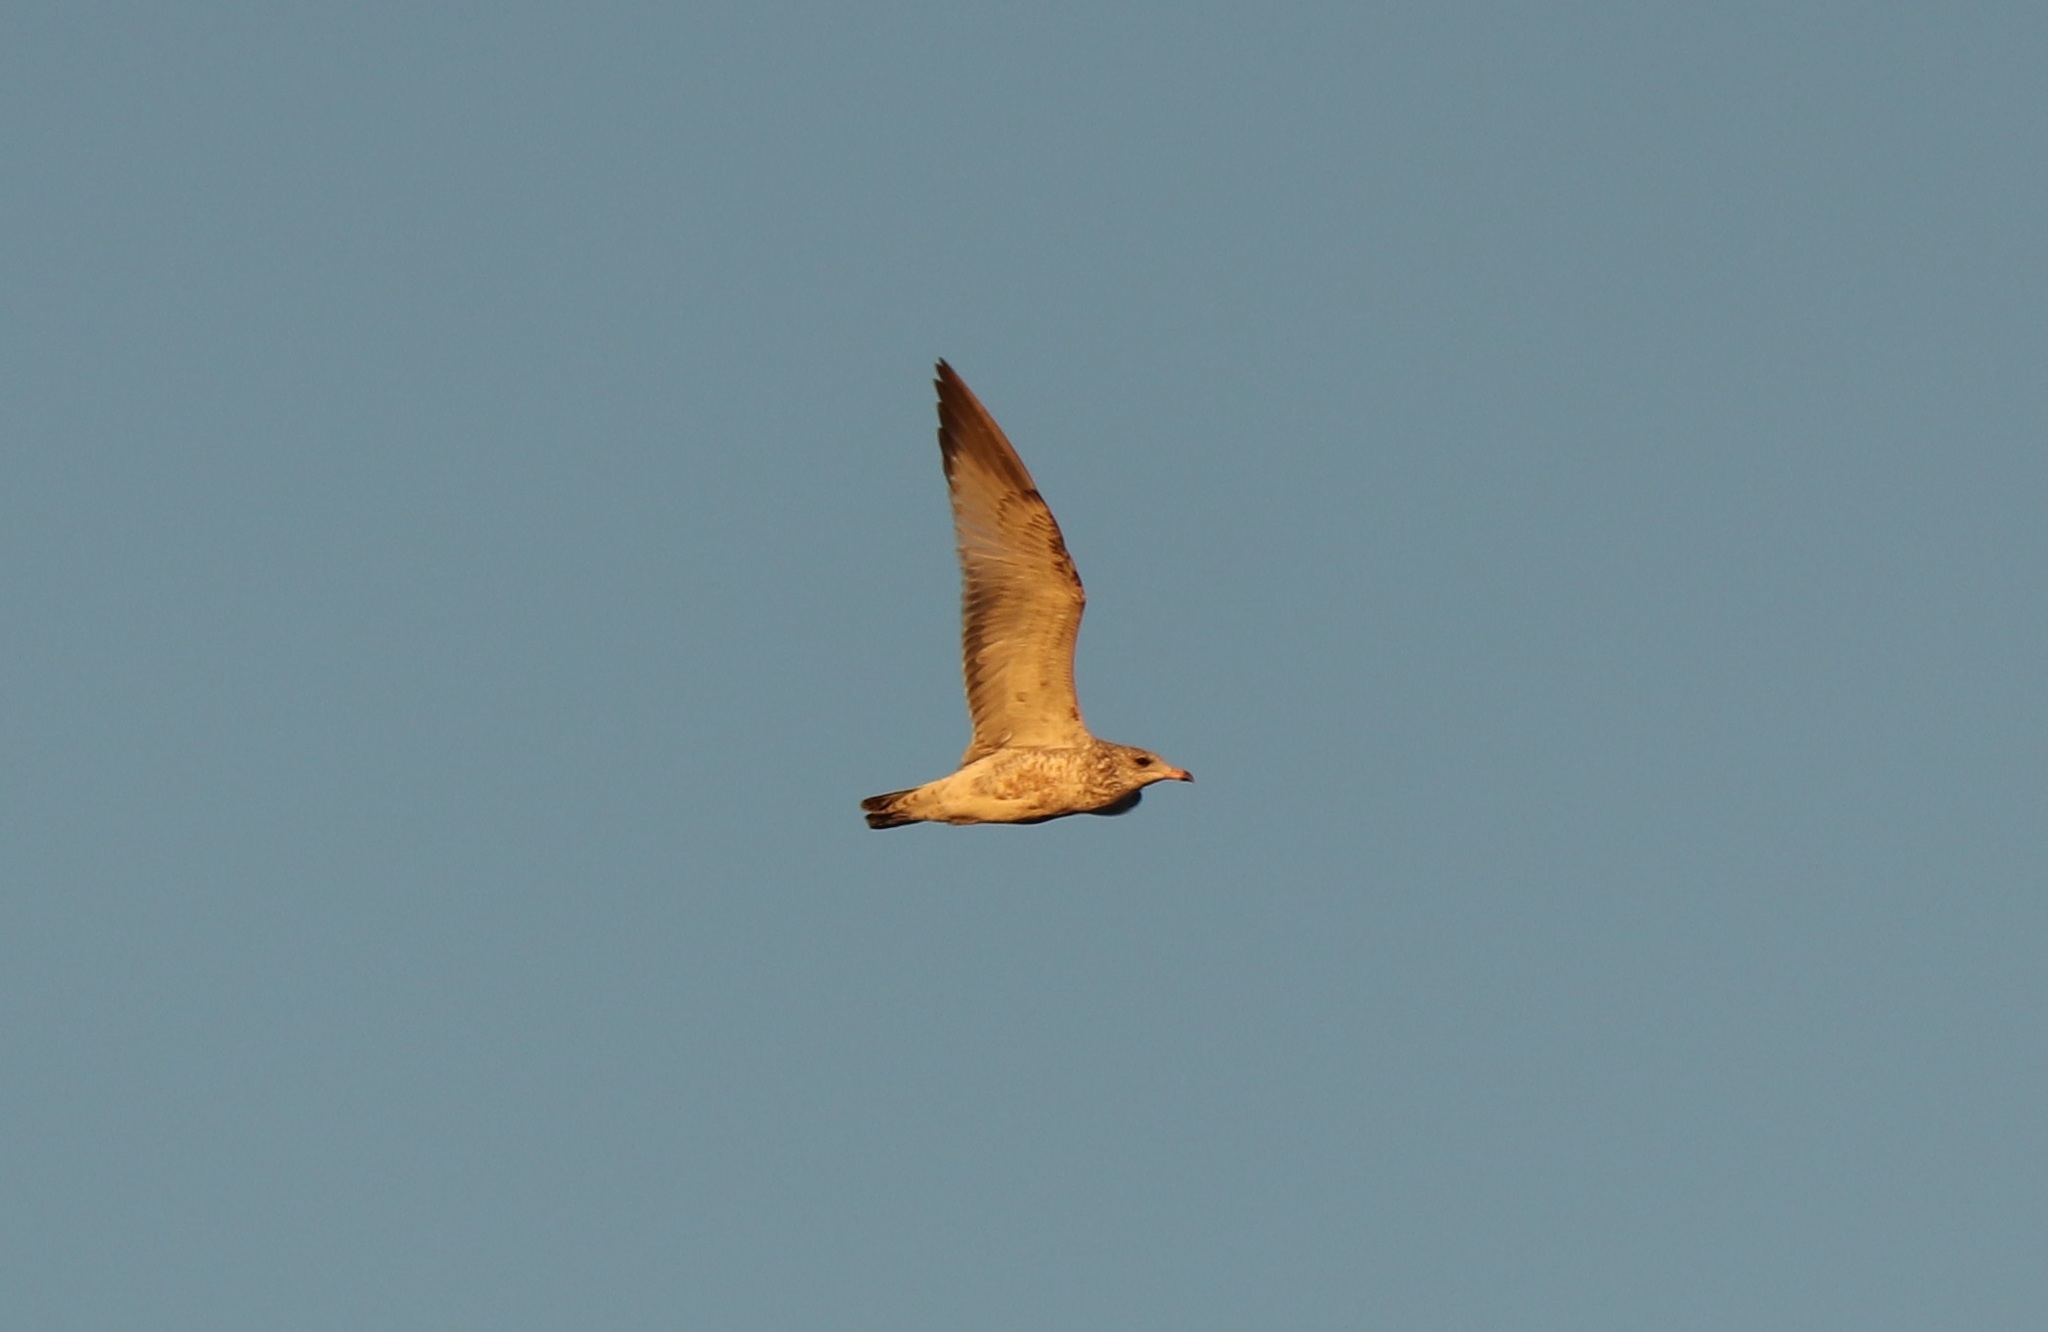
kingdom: Animalia
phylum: Chordata
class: Aves
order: Charadriiformes
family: Laridae
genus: Larus
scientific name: Larus delawarensis
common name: Ring-billed gull
